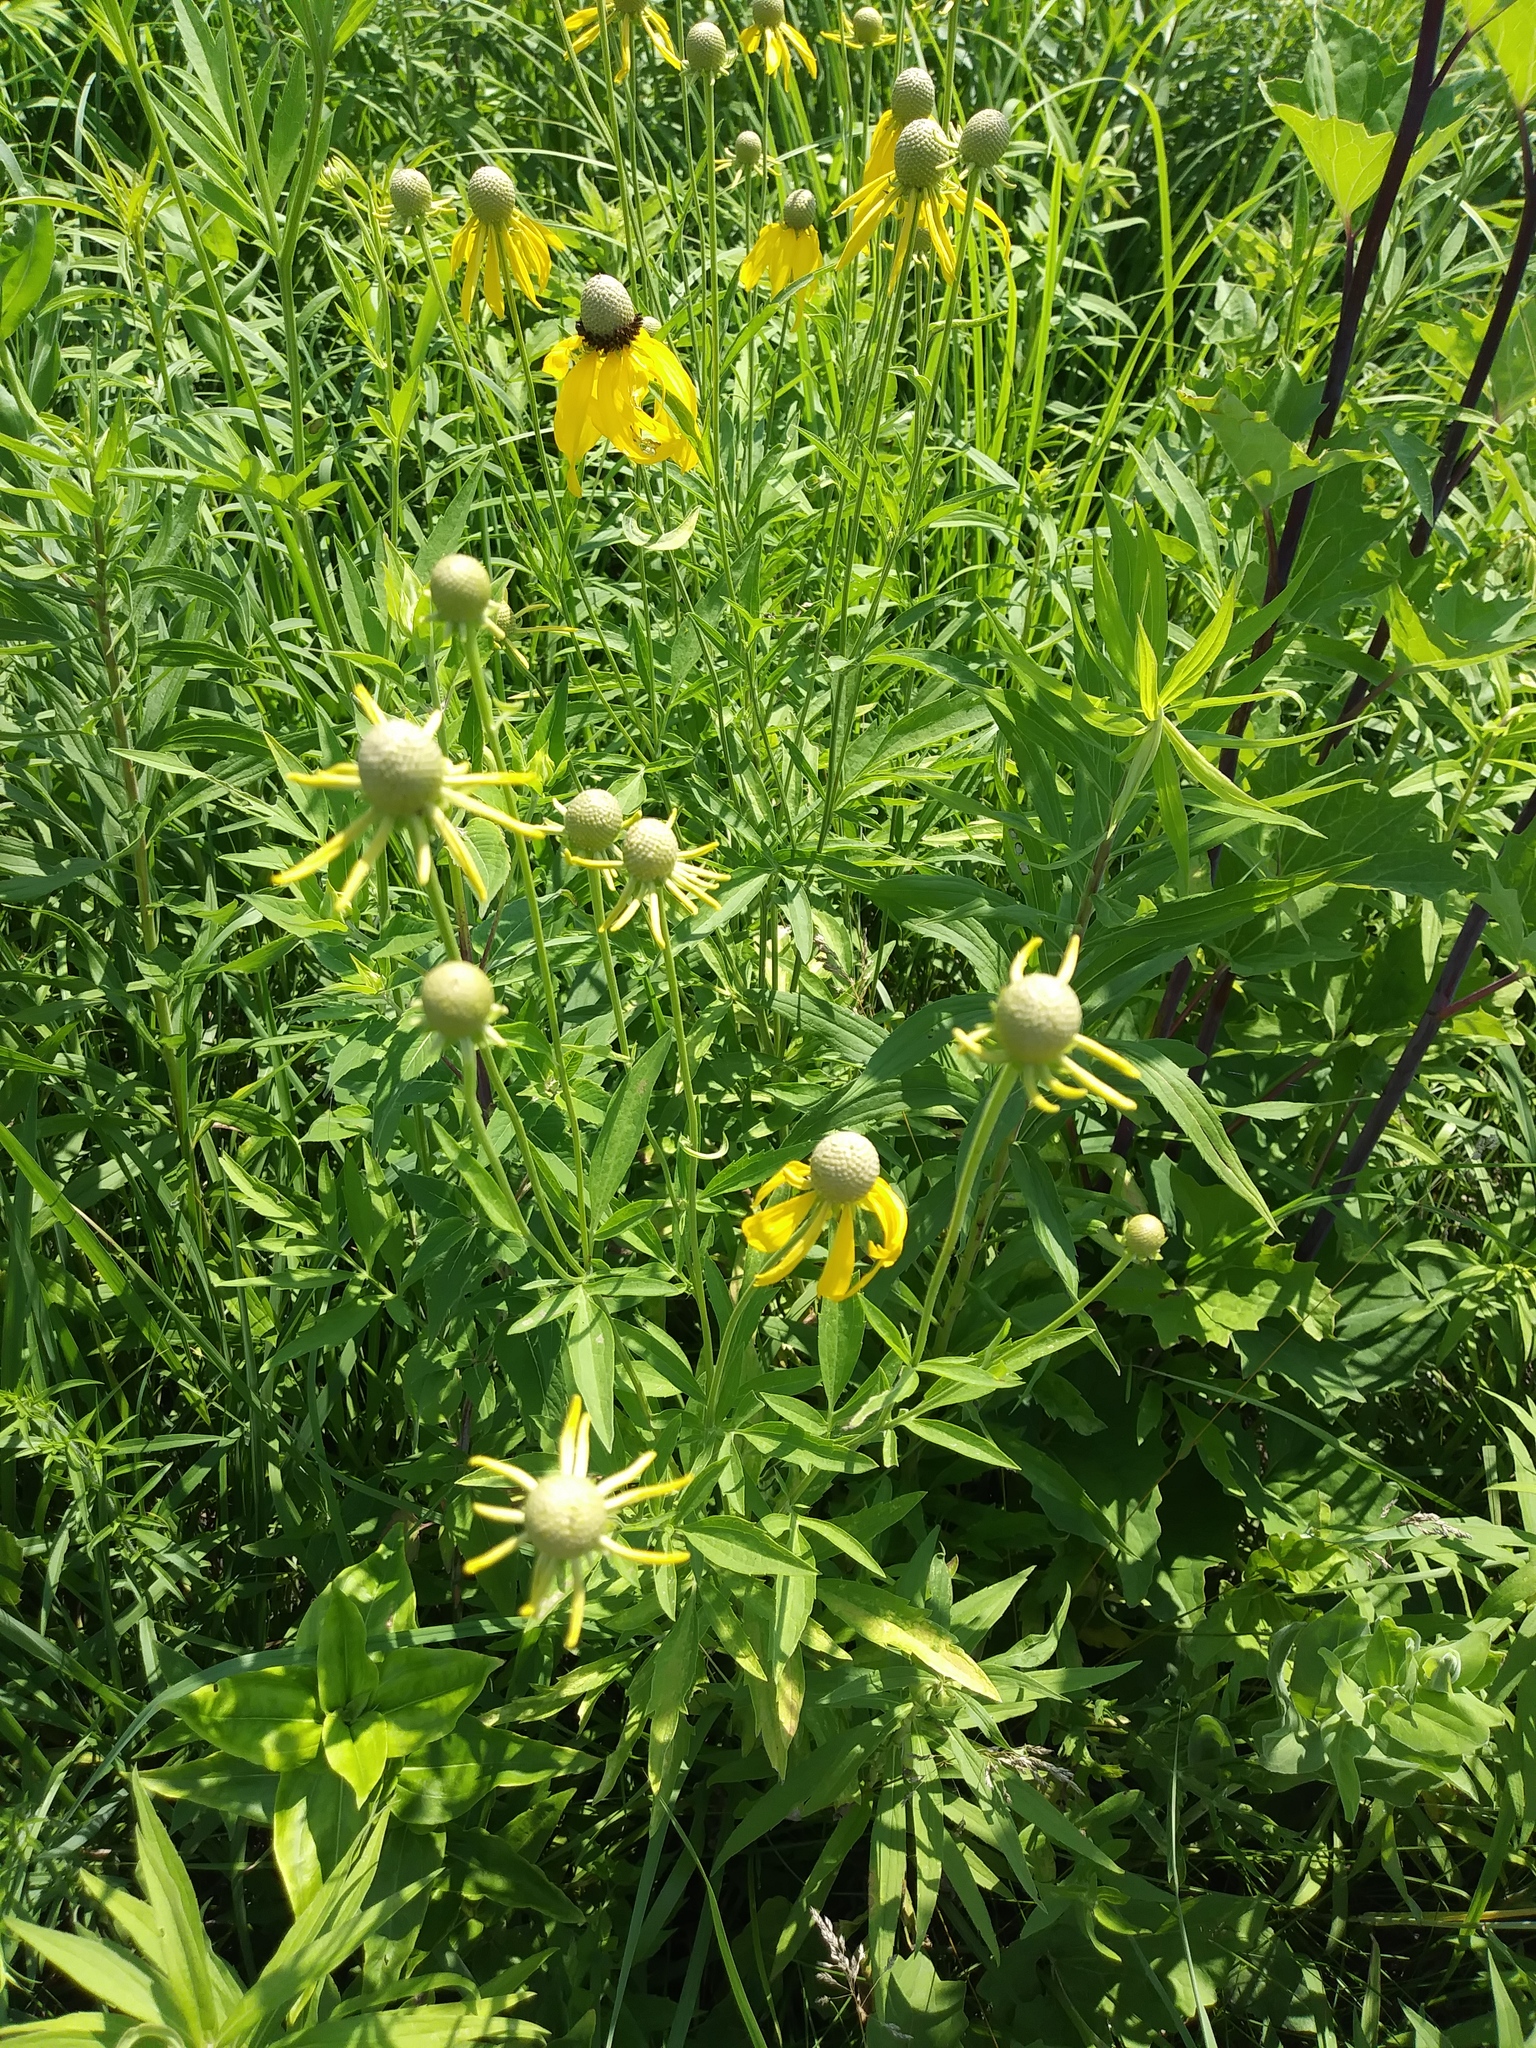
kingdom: Plantae
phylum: Tracheophyta
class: Magnoliopsida
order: Asterales
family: Asteraceae
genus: Ratibida
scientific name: Ratibida pinnata
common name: Drooping prairie-coneflower
